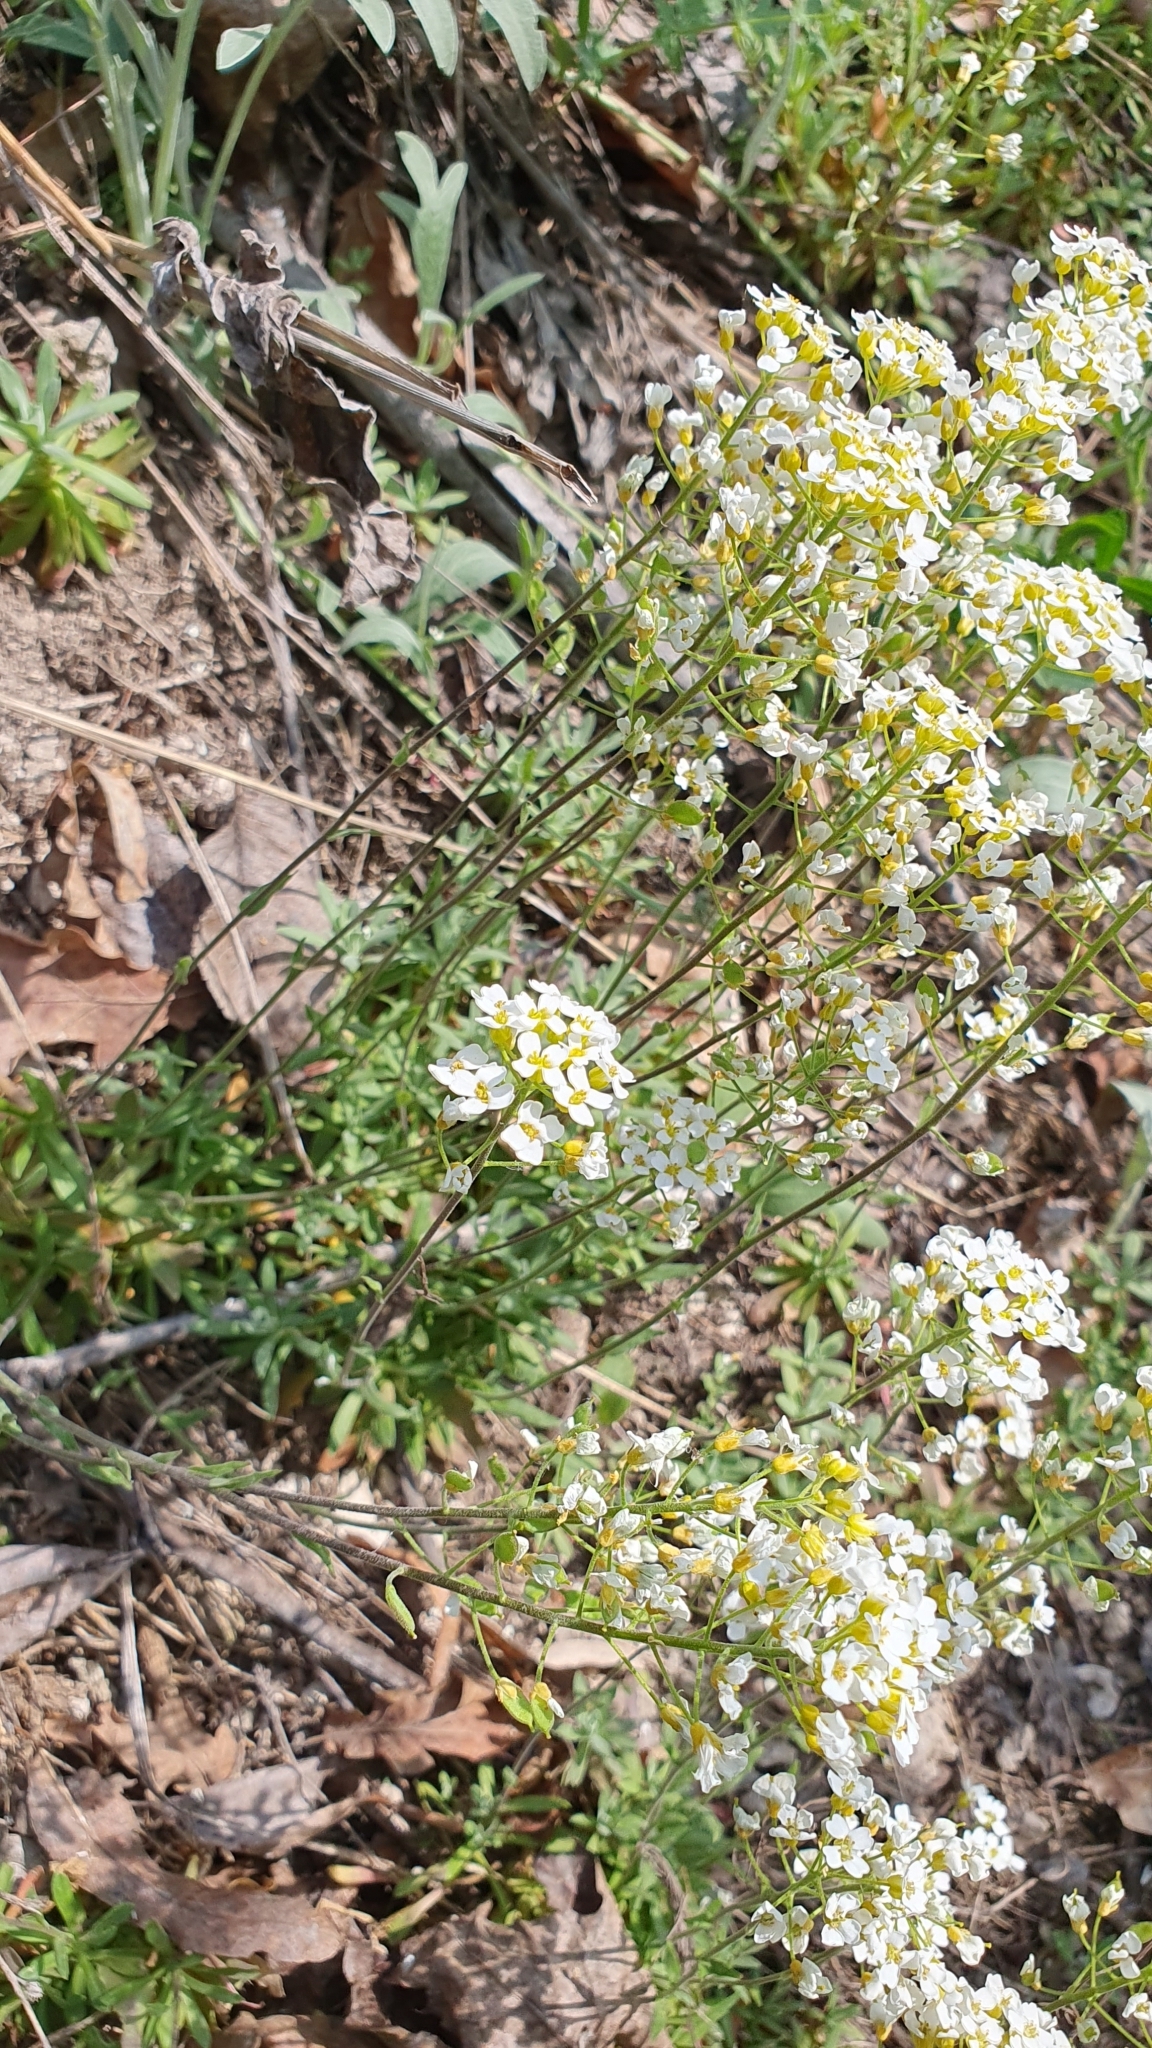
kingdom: Plantae
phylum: Tracheophyta
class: Magnoliopsida
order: Brassicales
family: Brassicaceae
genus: Draba
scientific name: Draba hyperborea
